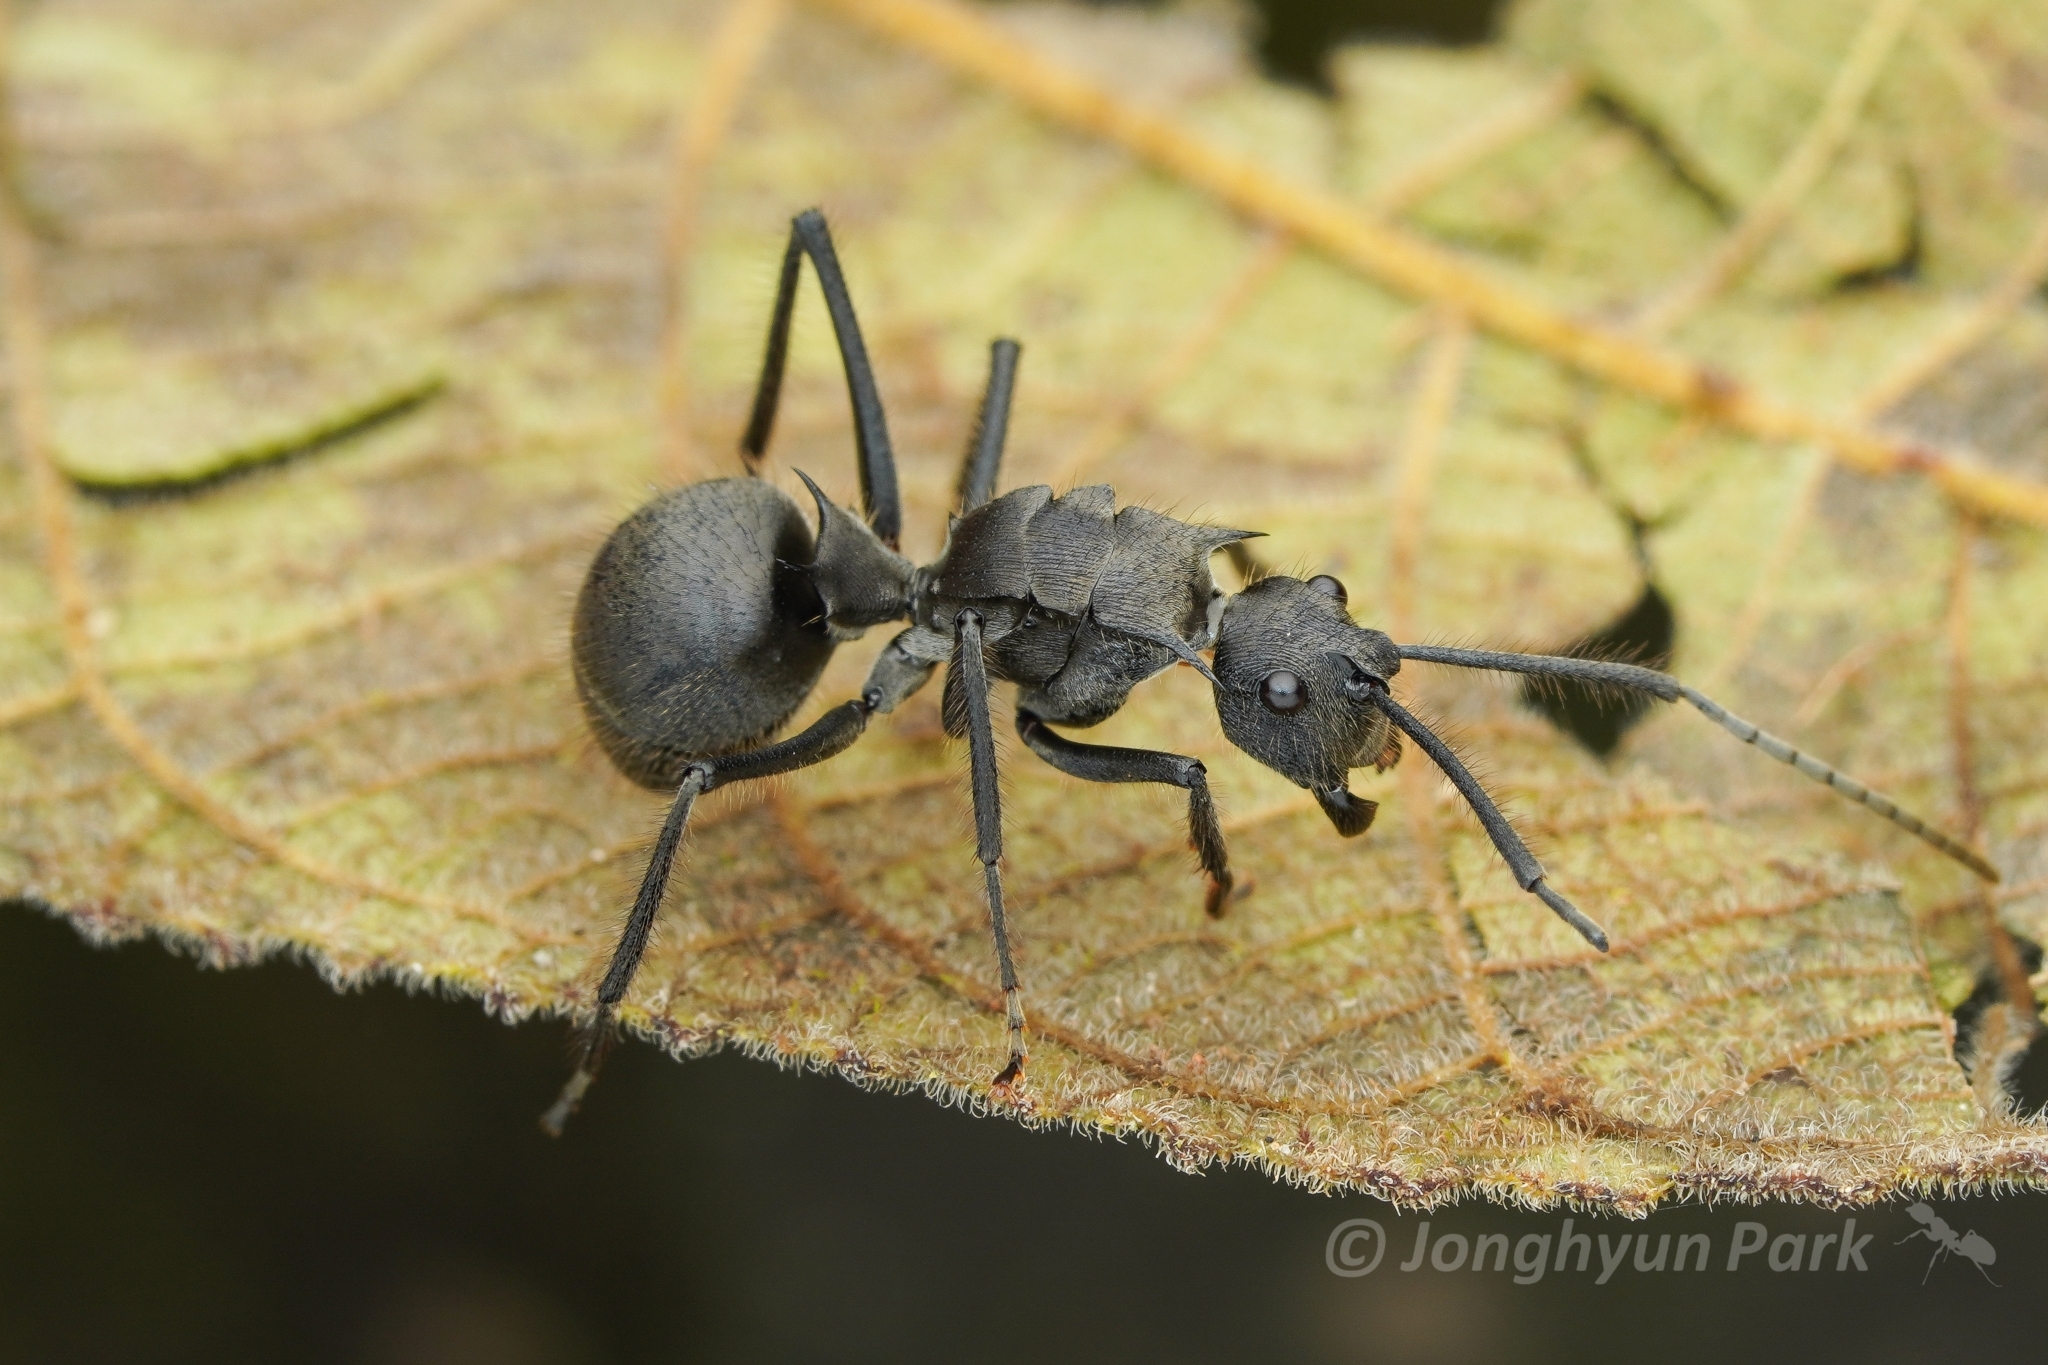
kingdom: Animalia
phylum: Arthropoda
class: Insecta
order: Hymenoptera
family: Formicidae
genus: Polyrhachis
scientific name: Polyrhachis sculpturata
